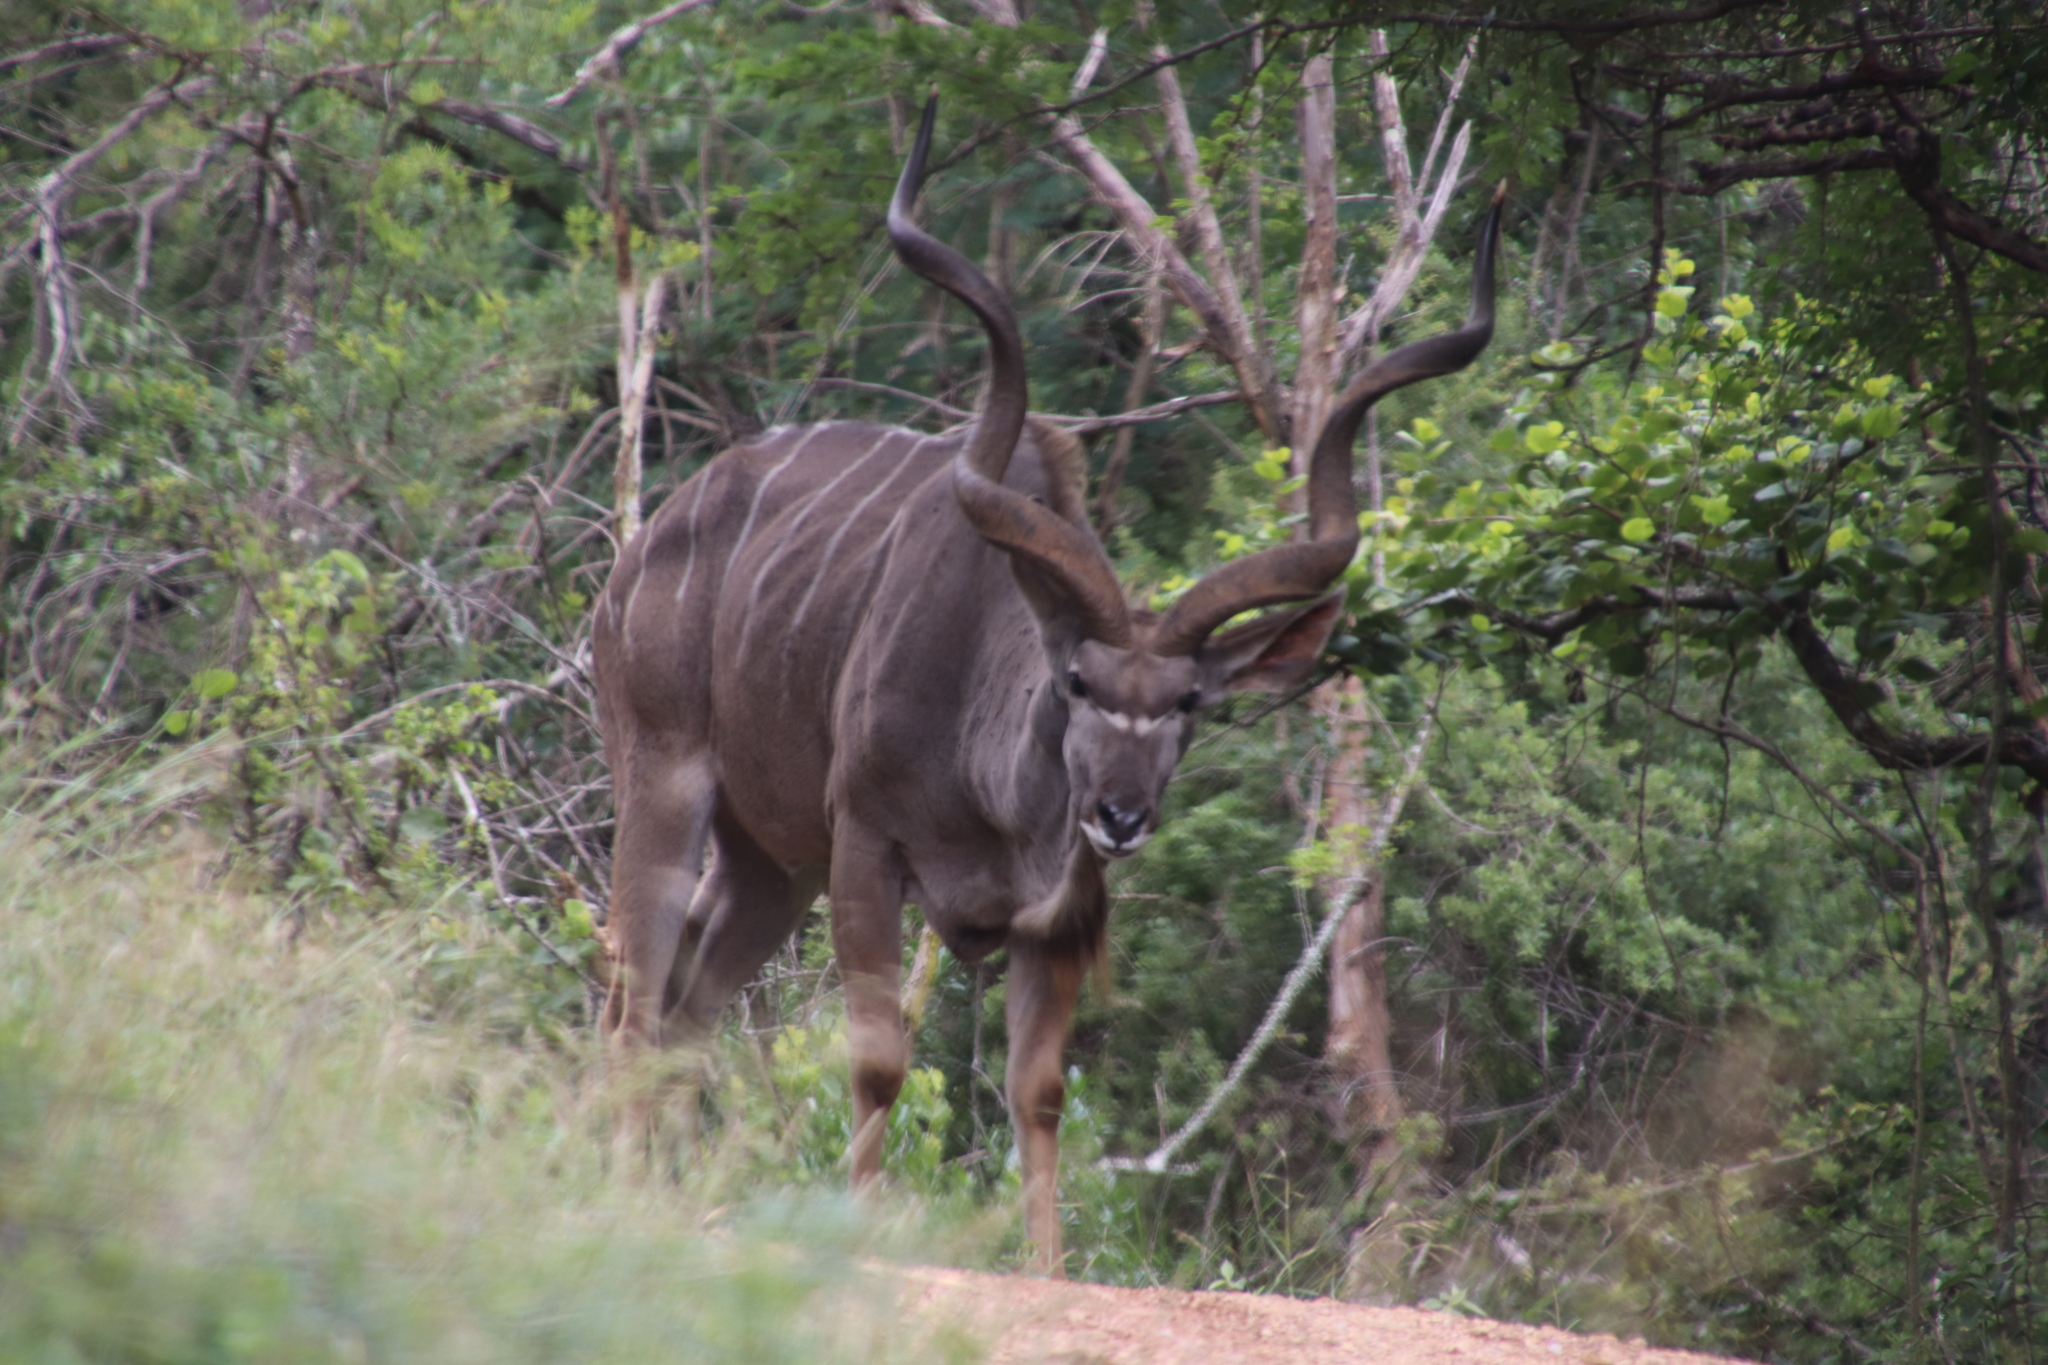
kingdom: Animalia
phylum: Chordata
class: Mammalia
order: Artiodactyla
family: Bovidae
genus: Tragelaphus
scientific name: Tragelaphus strepsiceros
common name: Greater kudu
